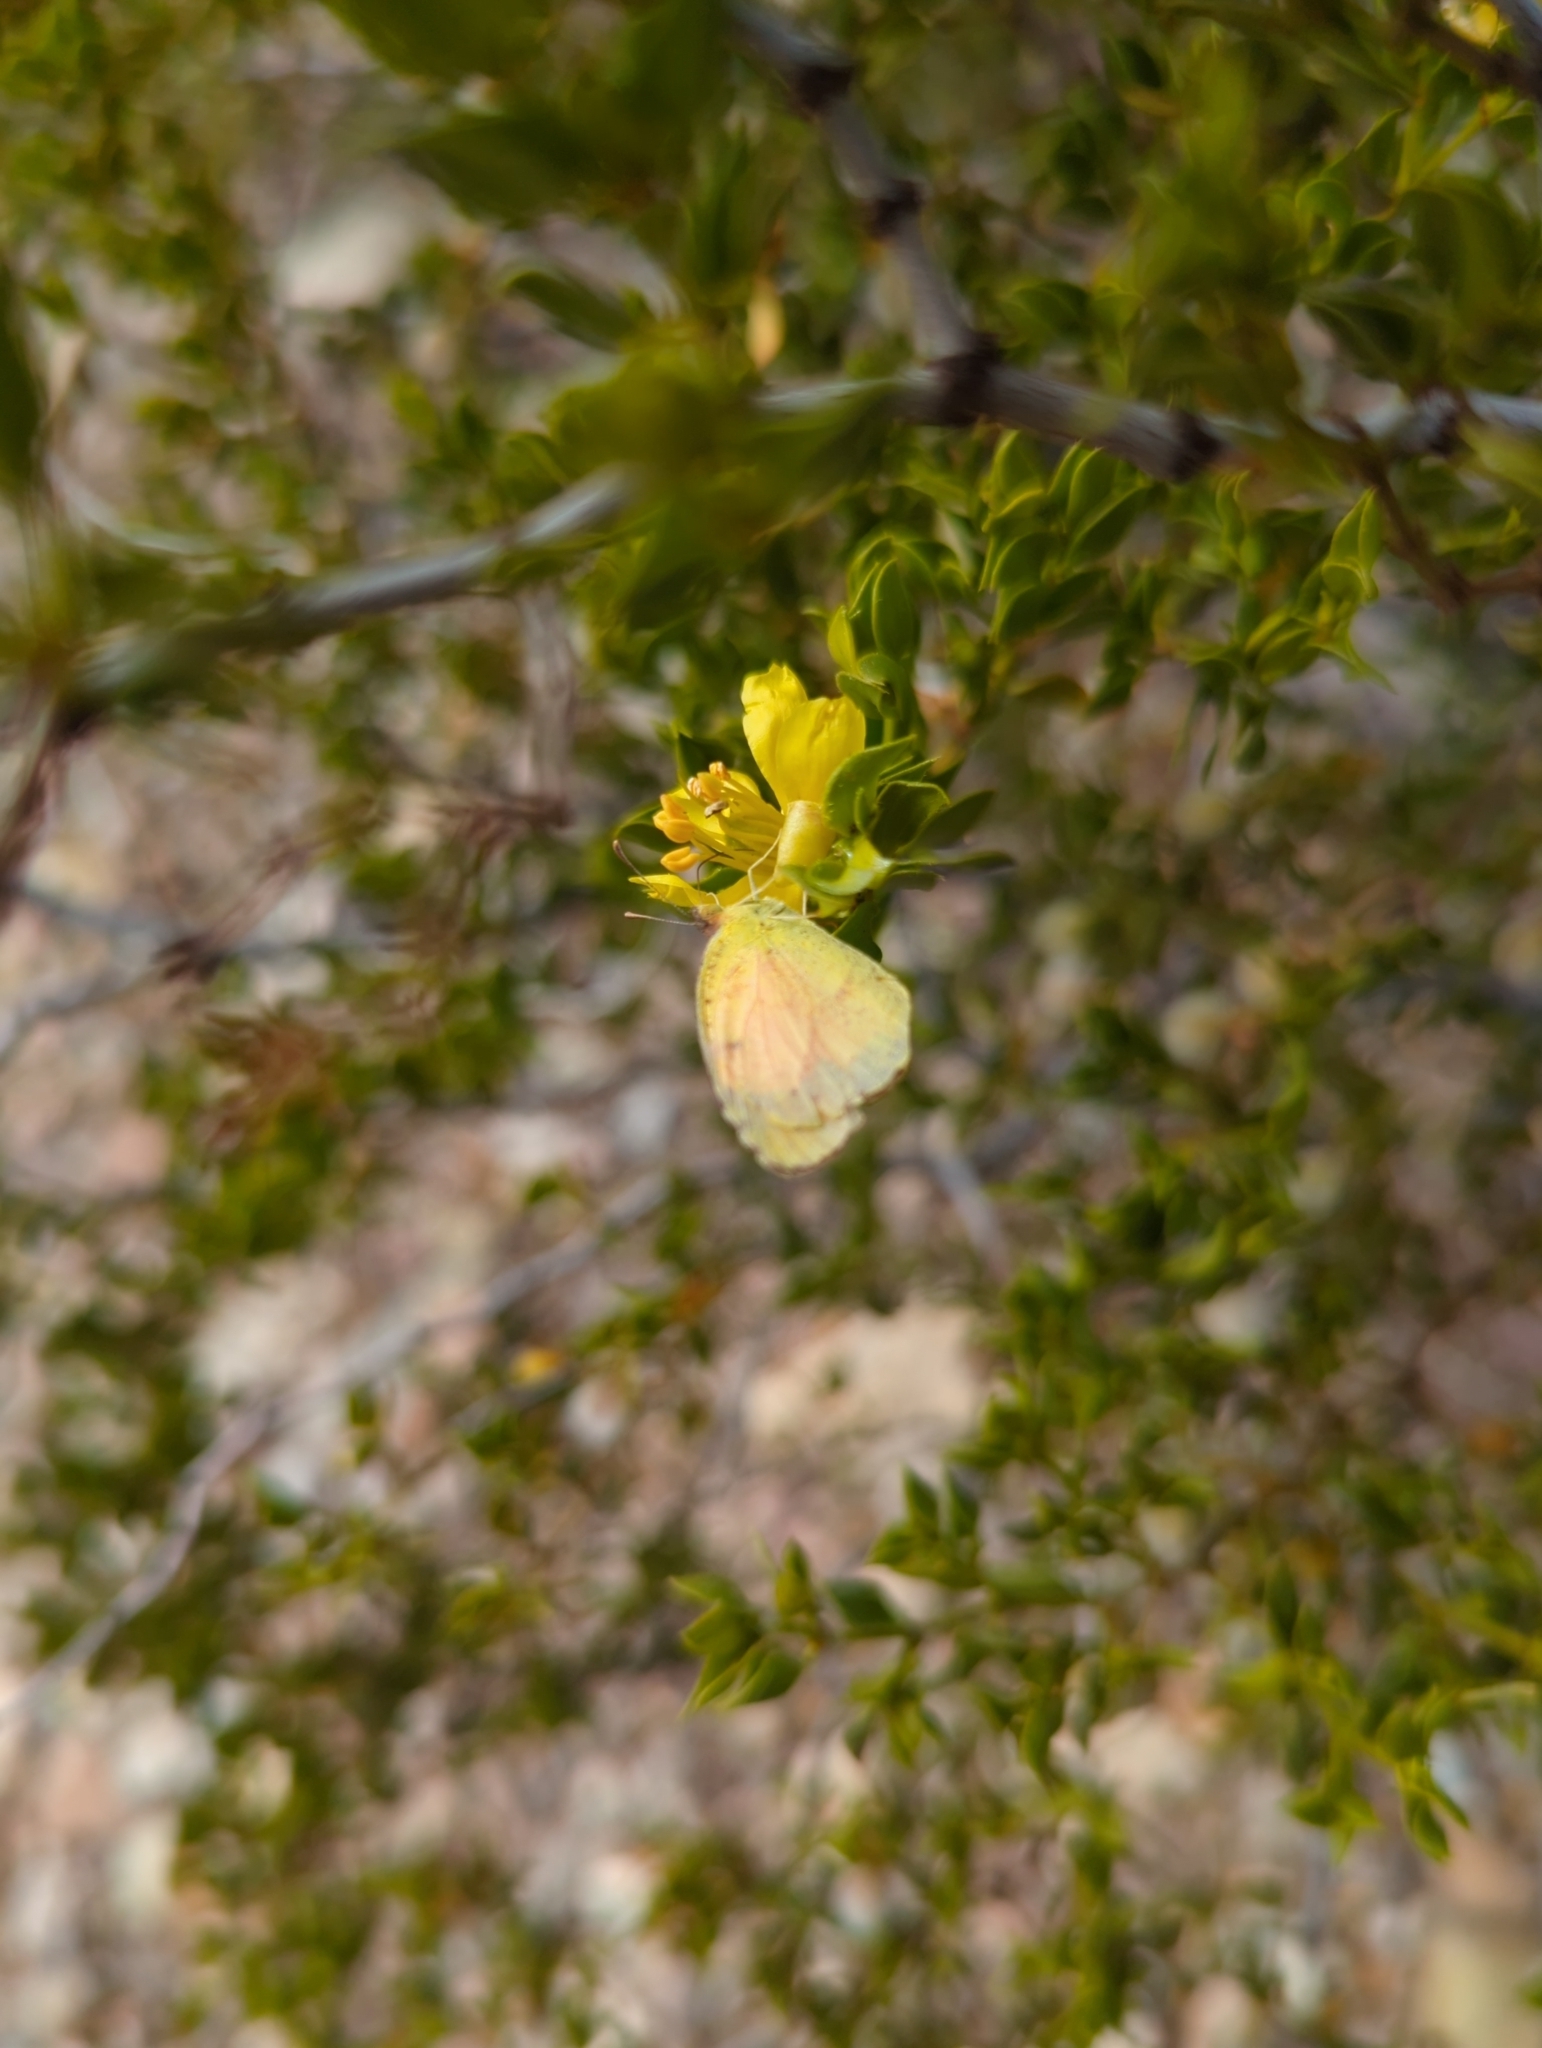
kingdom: Animalia
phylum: Arthropoda
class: Insecta
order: Lepidoptera
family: Pieridae
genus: Abaeis
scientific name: Abaeis nicippe
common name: Sleepy orange
